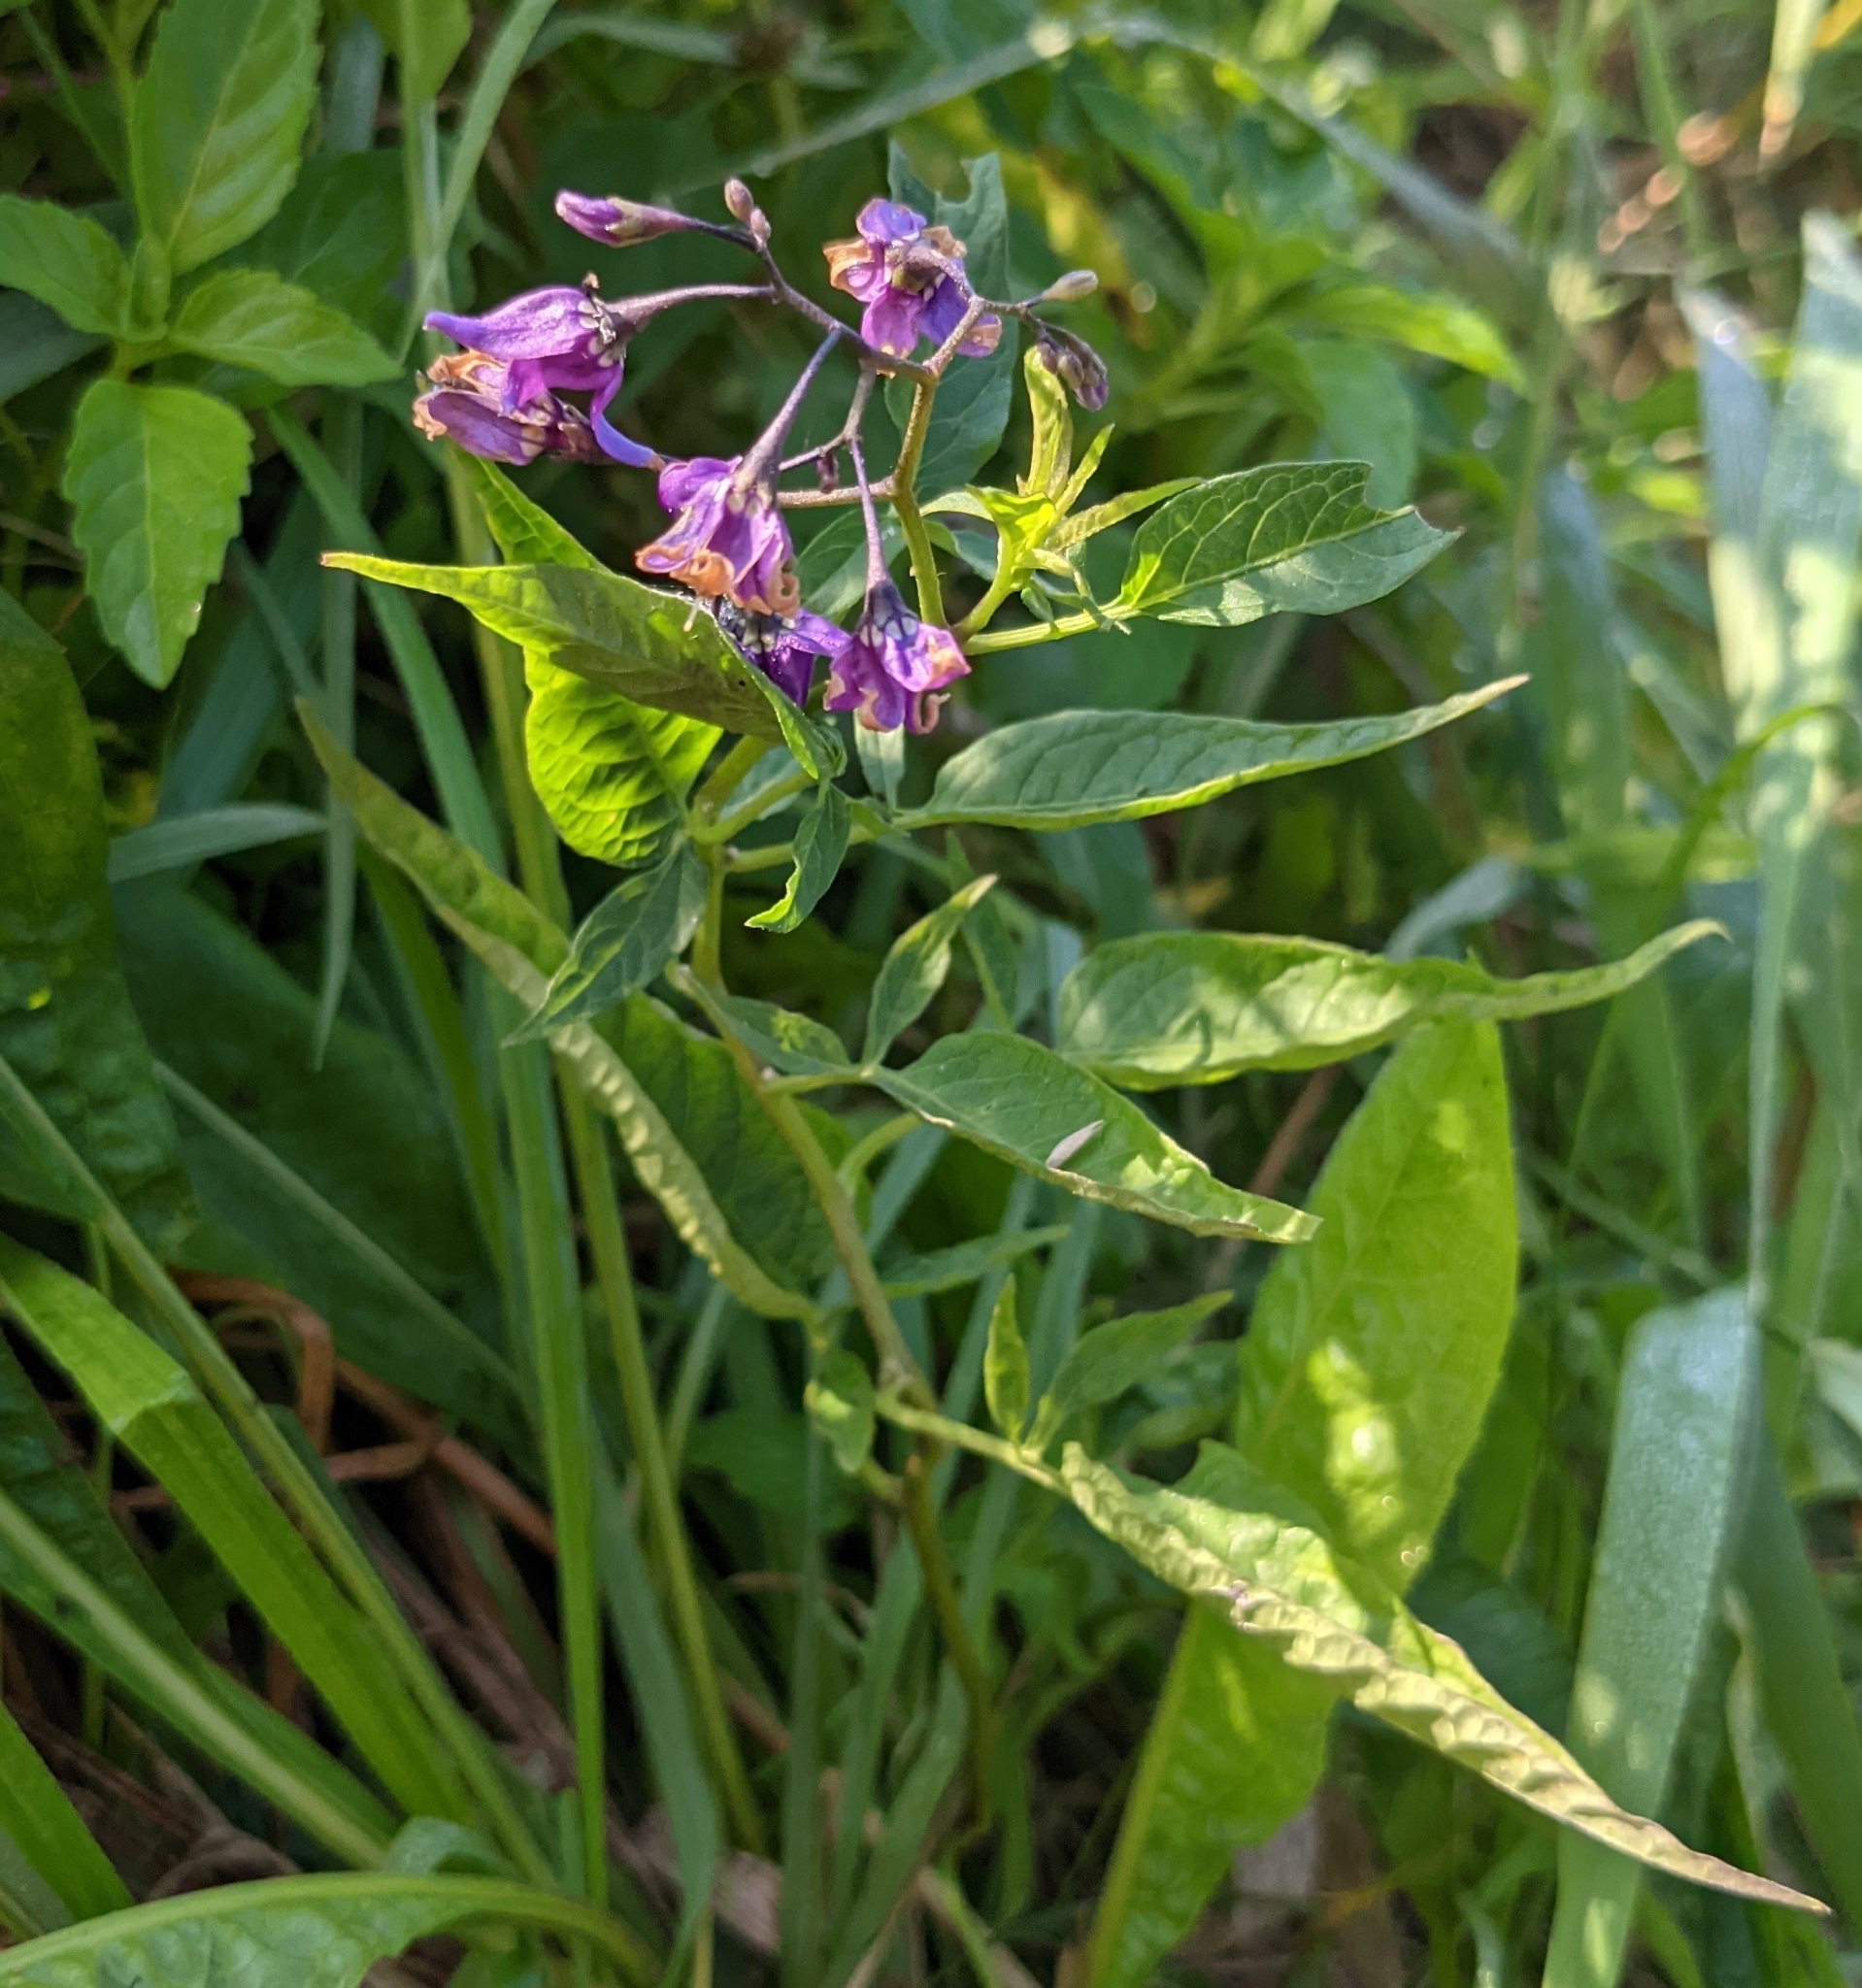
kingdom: Plantae
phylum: Tracheophyta
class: Magnoliopsida
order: Solanales
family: Solanaceae
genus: Solanum
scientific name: Solanum dulcamara
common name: Climbing nightshade
